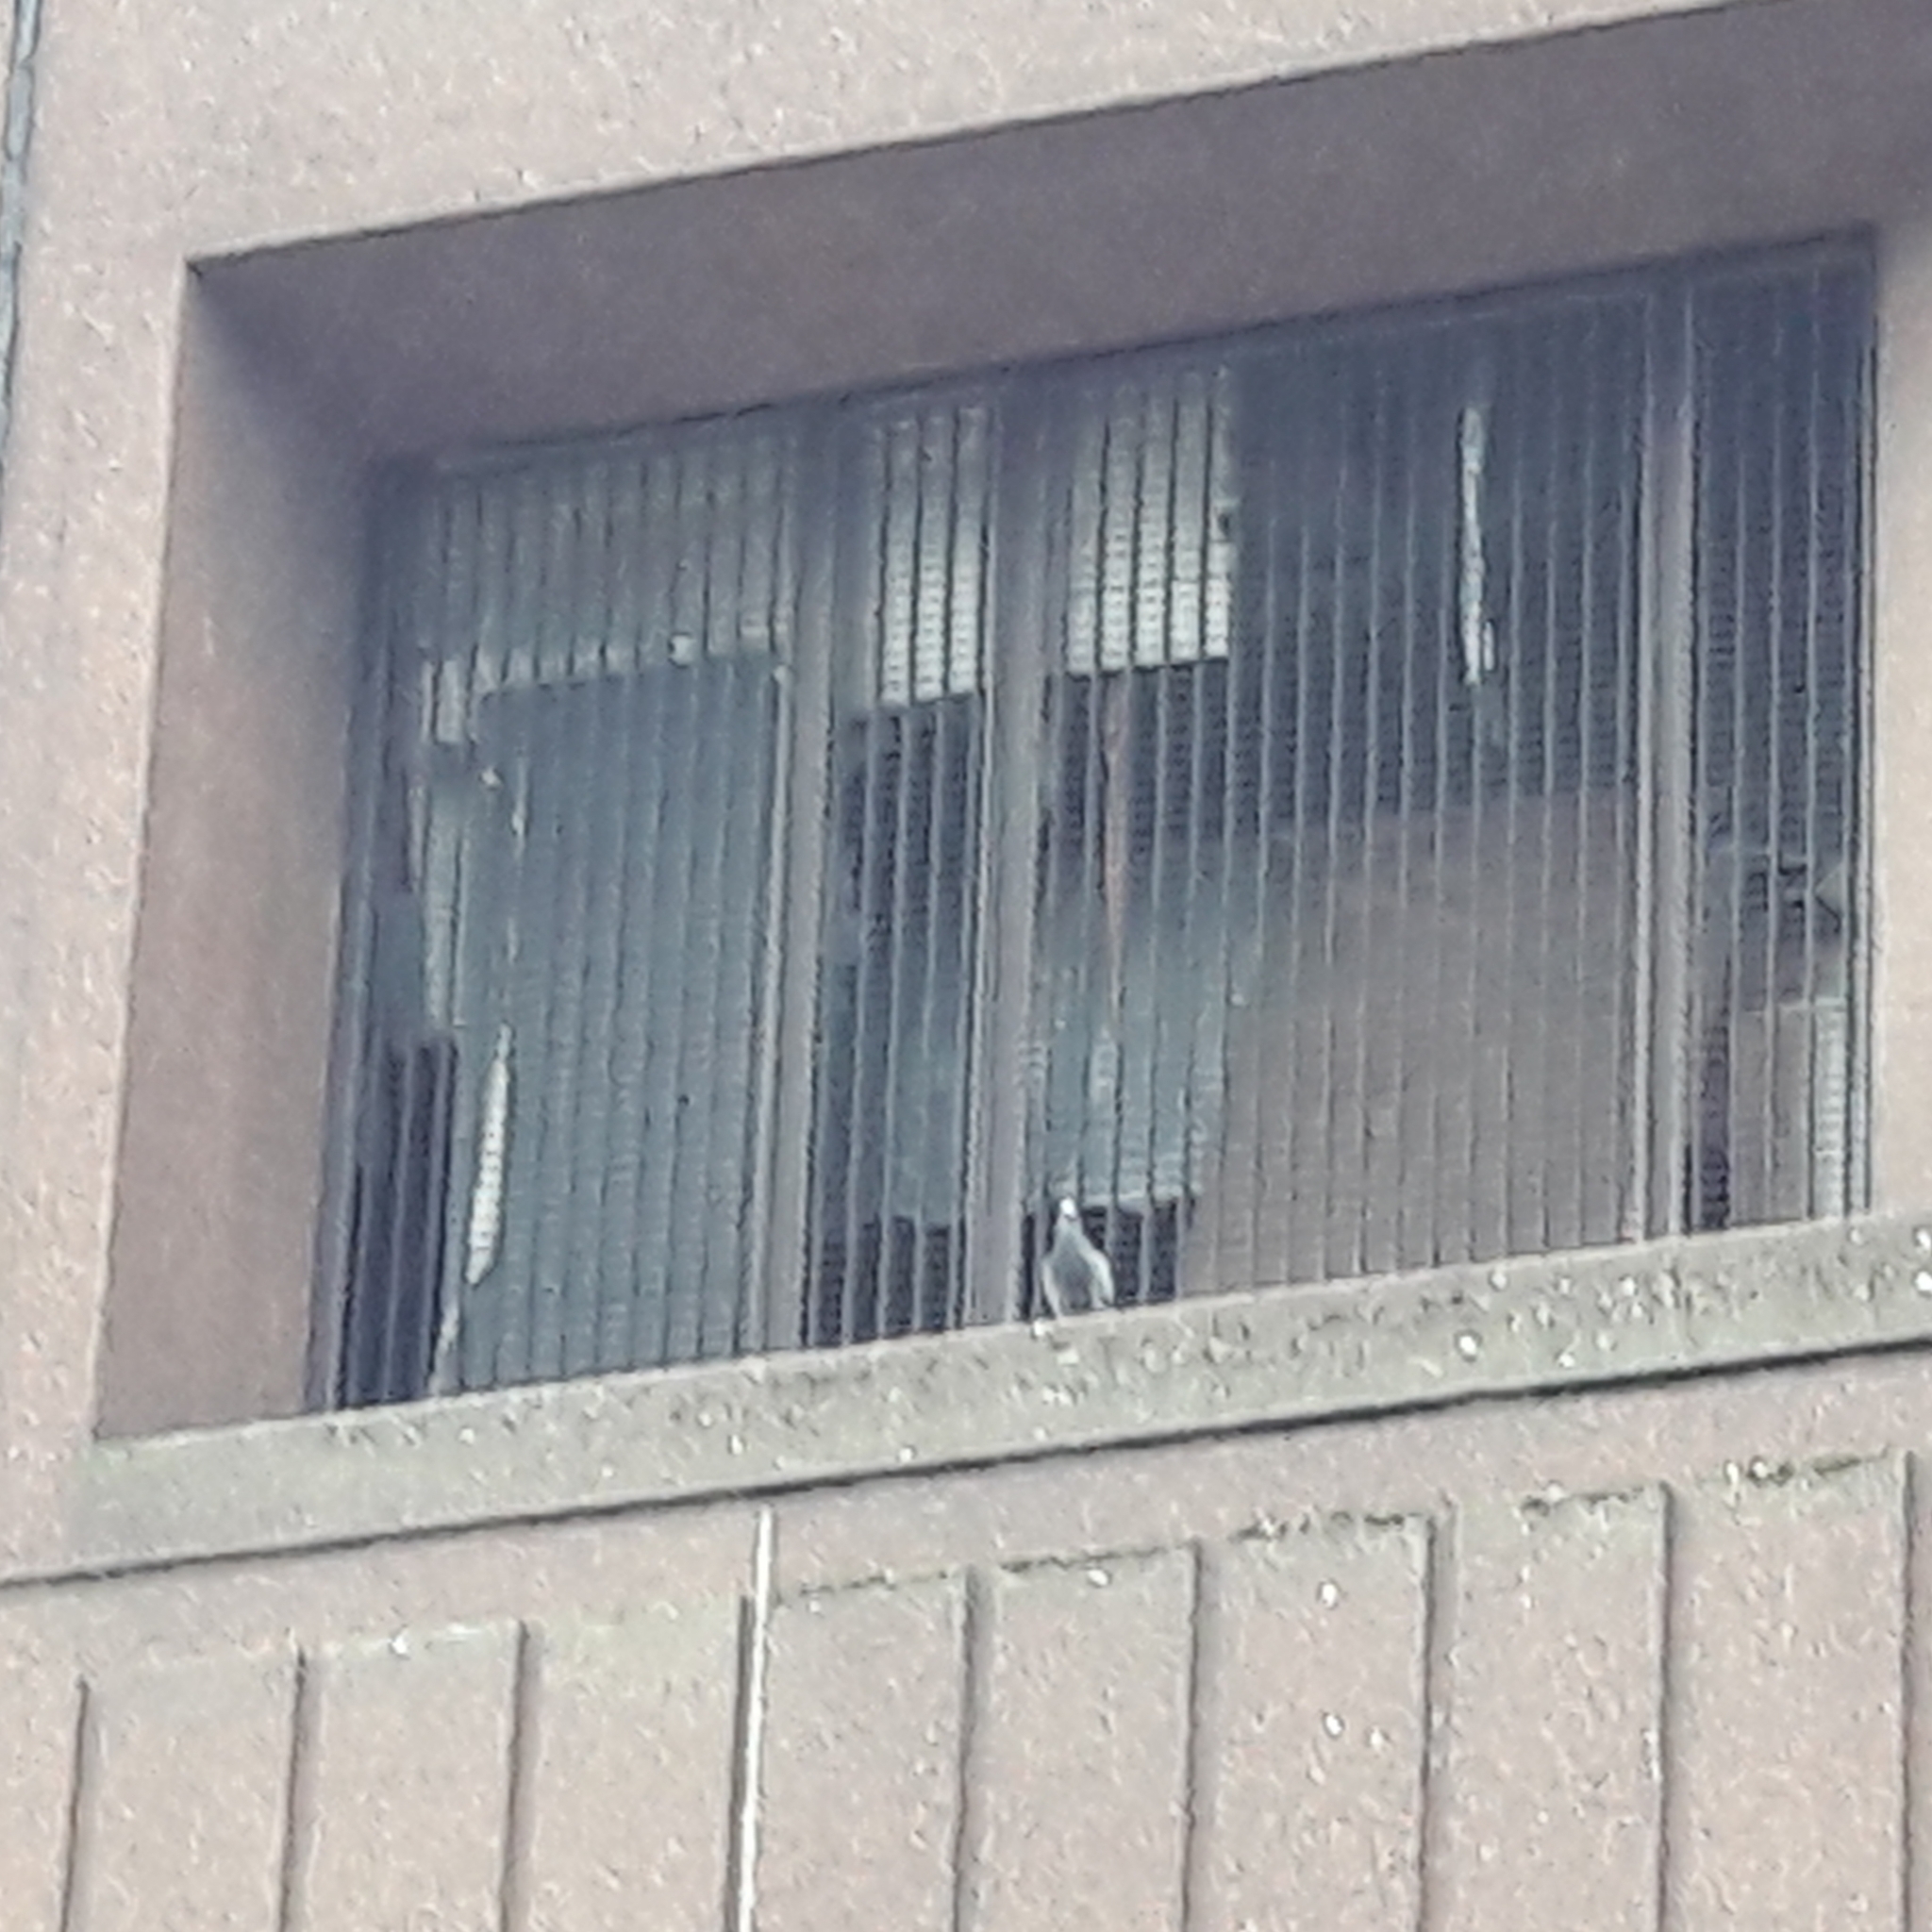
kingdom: Animalia
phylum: Chordata
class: Aves
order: Columbiformes
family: Columbidae
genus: Columba
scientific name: Columba livia
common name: Rock pigeon
